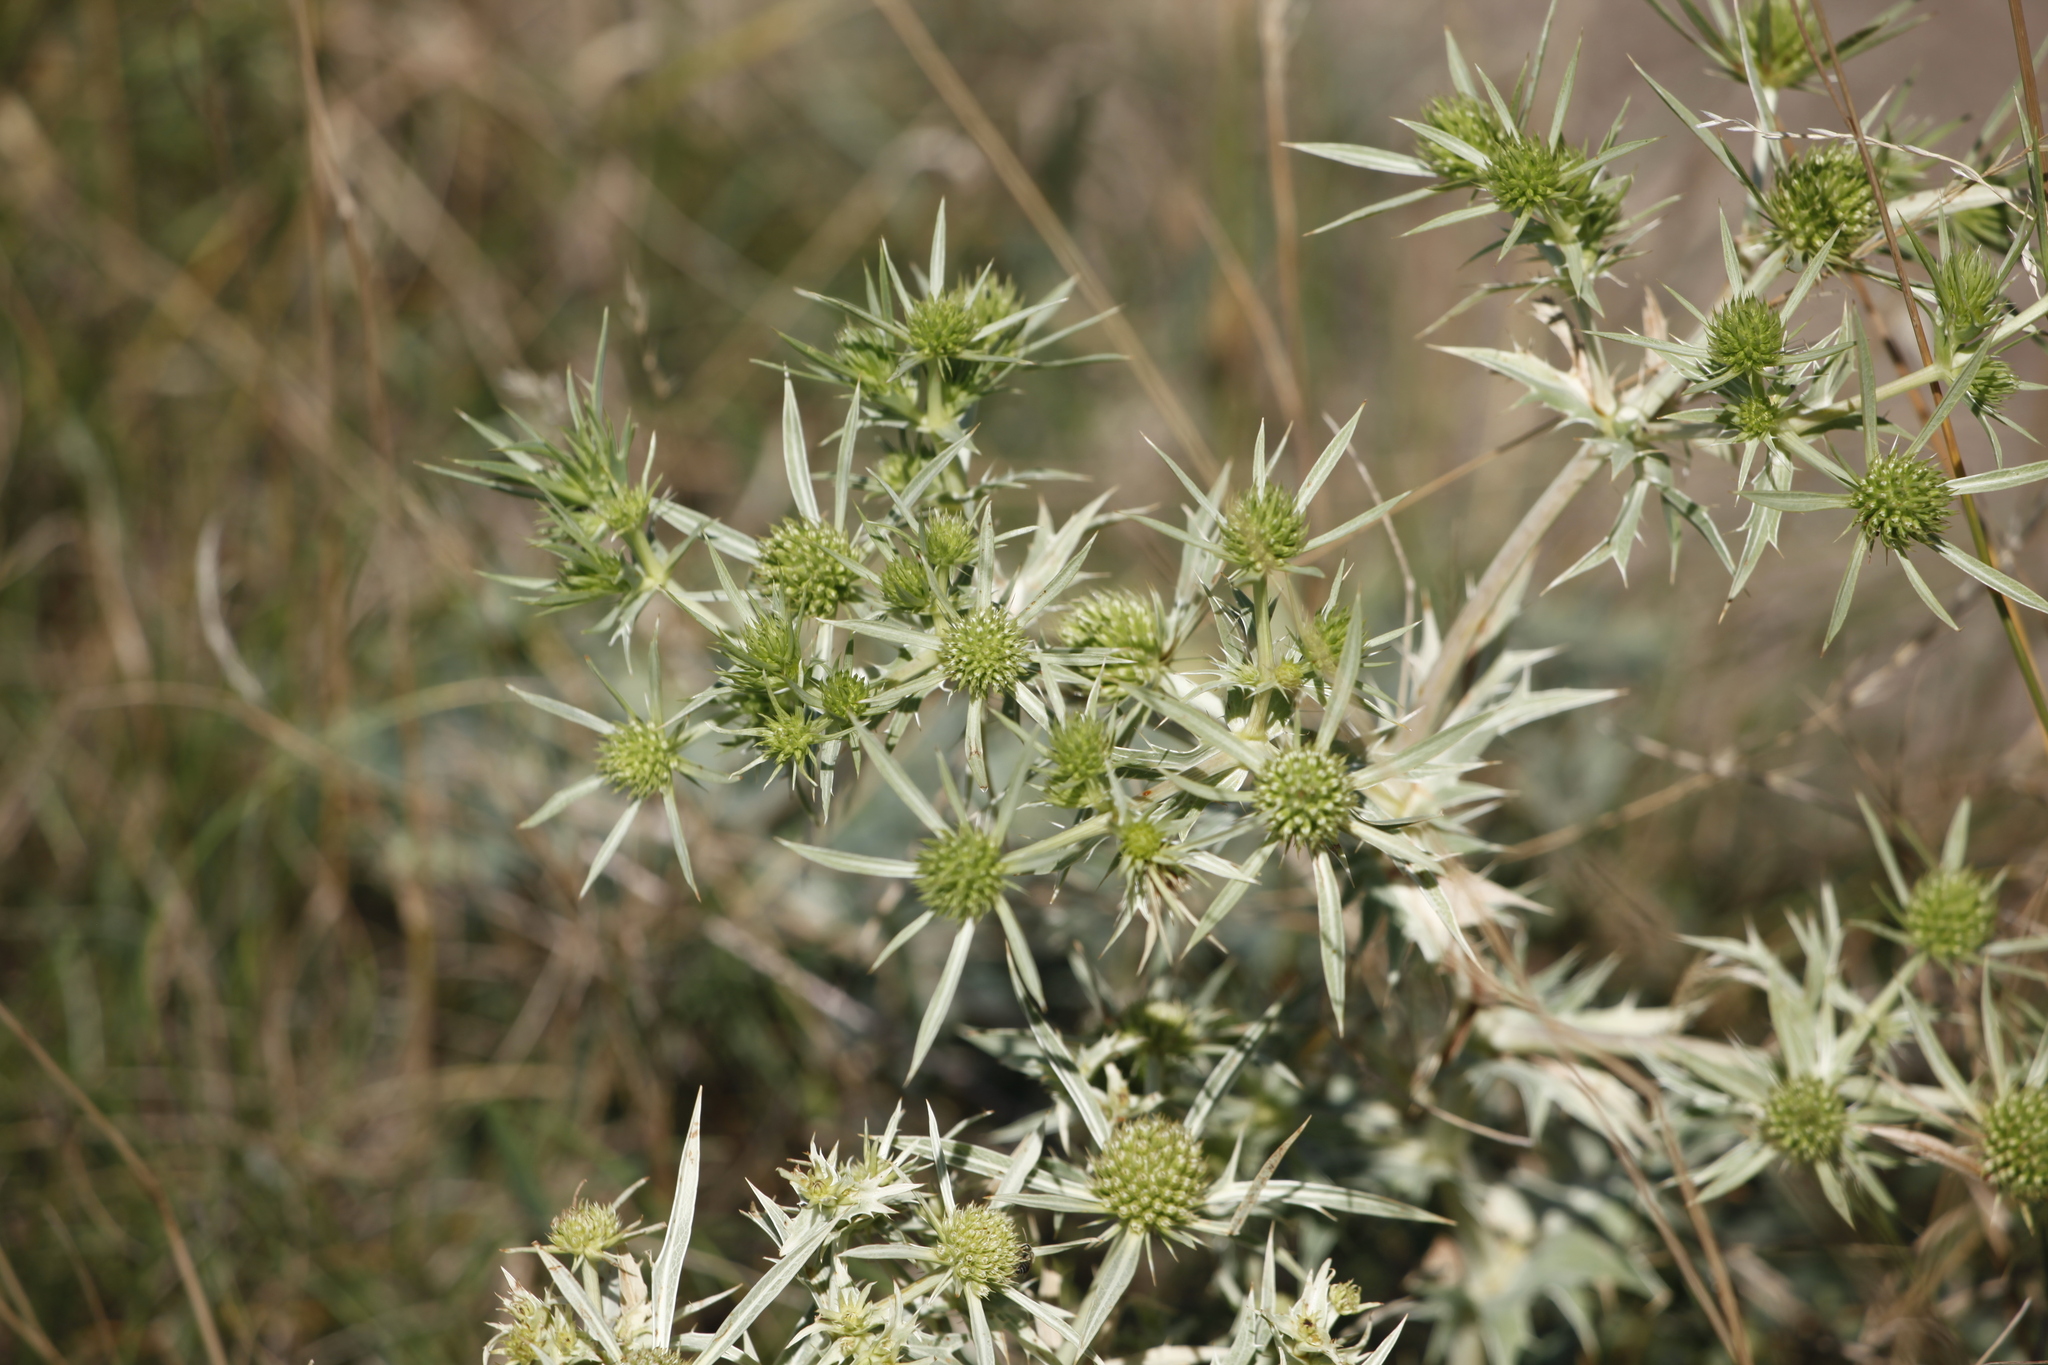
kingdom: Plantae
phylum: Tracheophyta
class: Magnoliopsida
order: Apiales
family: Apiaceae
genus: Eryngium
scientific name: Eryngium campestre
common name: Field eryngo
